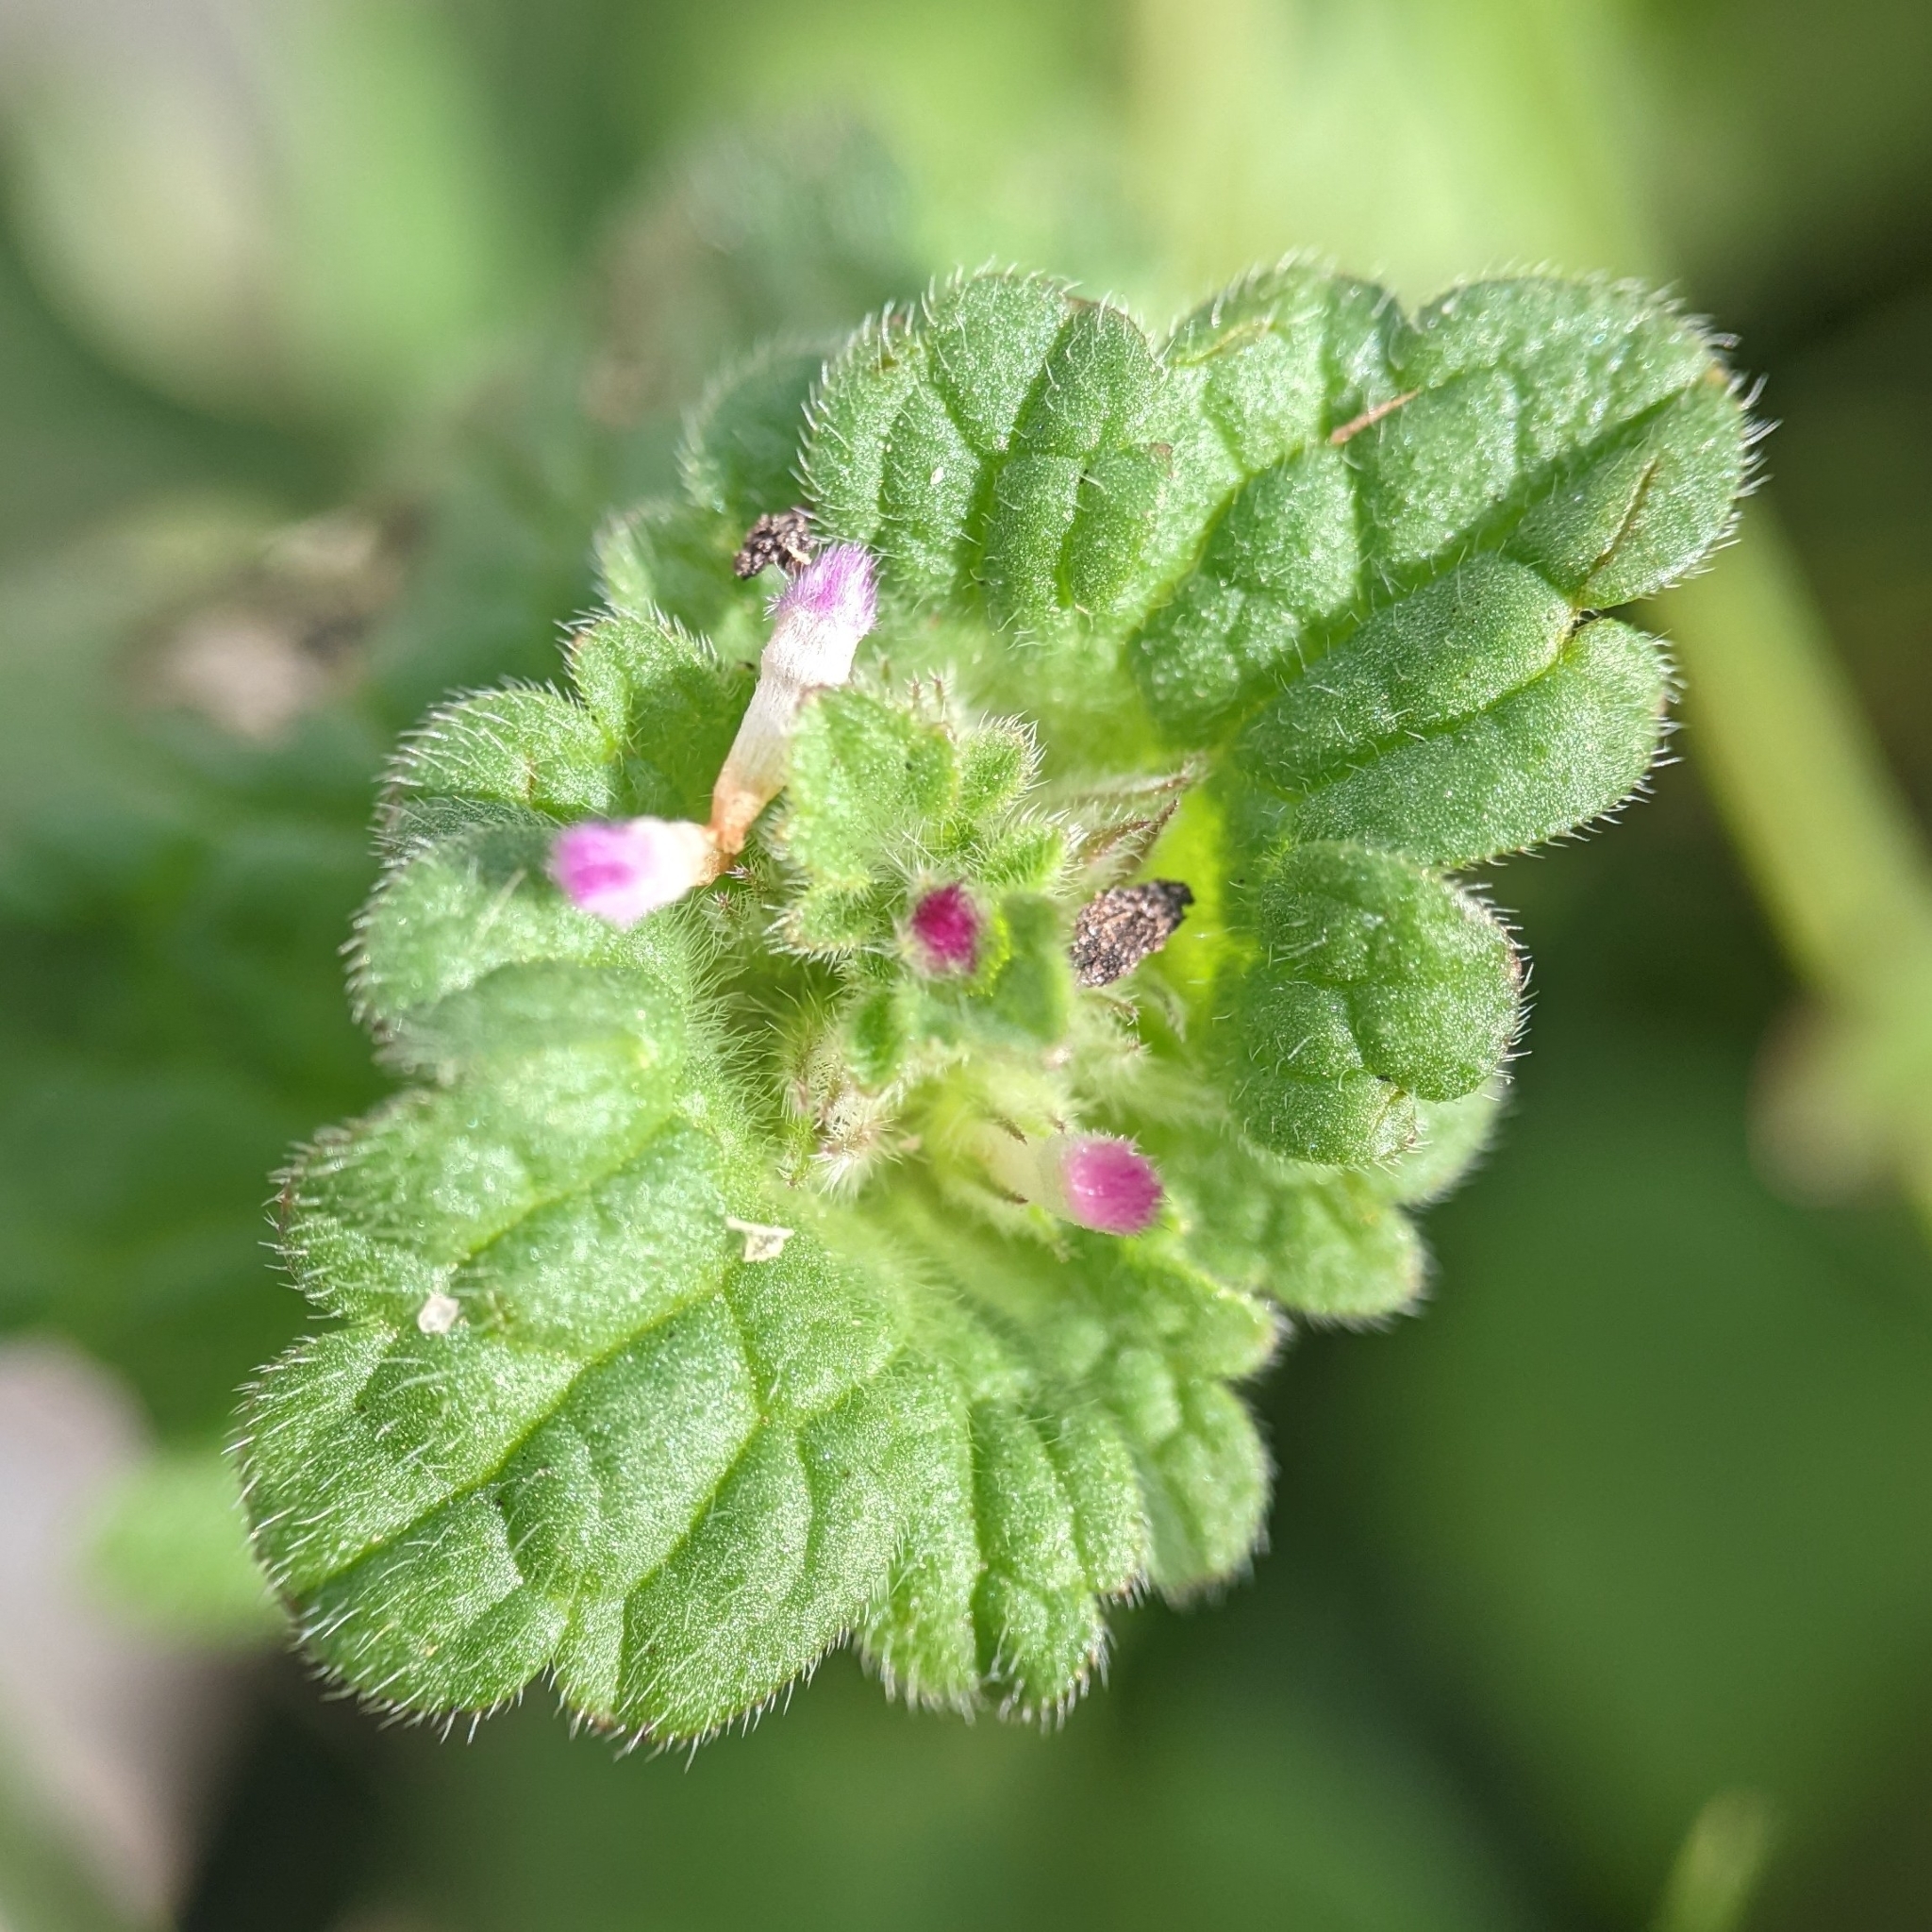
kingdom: Plantae
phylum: Tracheophyta
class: Magnoliopsida
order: Lamiales
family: Lamiaceae
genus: Lamium
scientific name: Lamium amplexicaule
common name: Henbit dead-nettle
